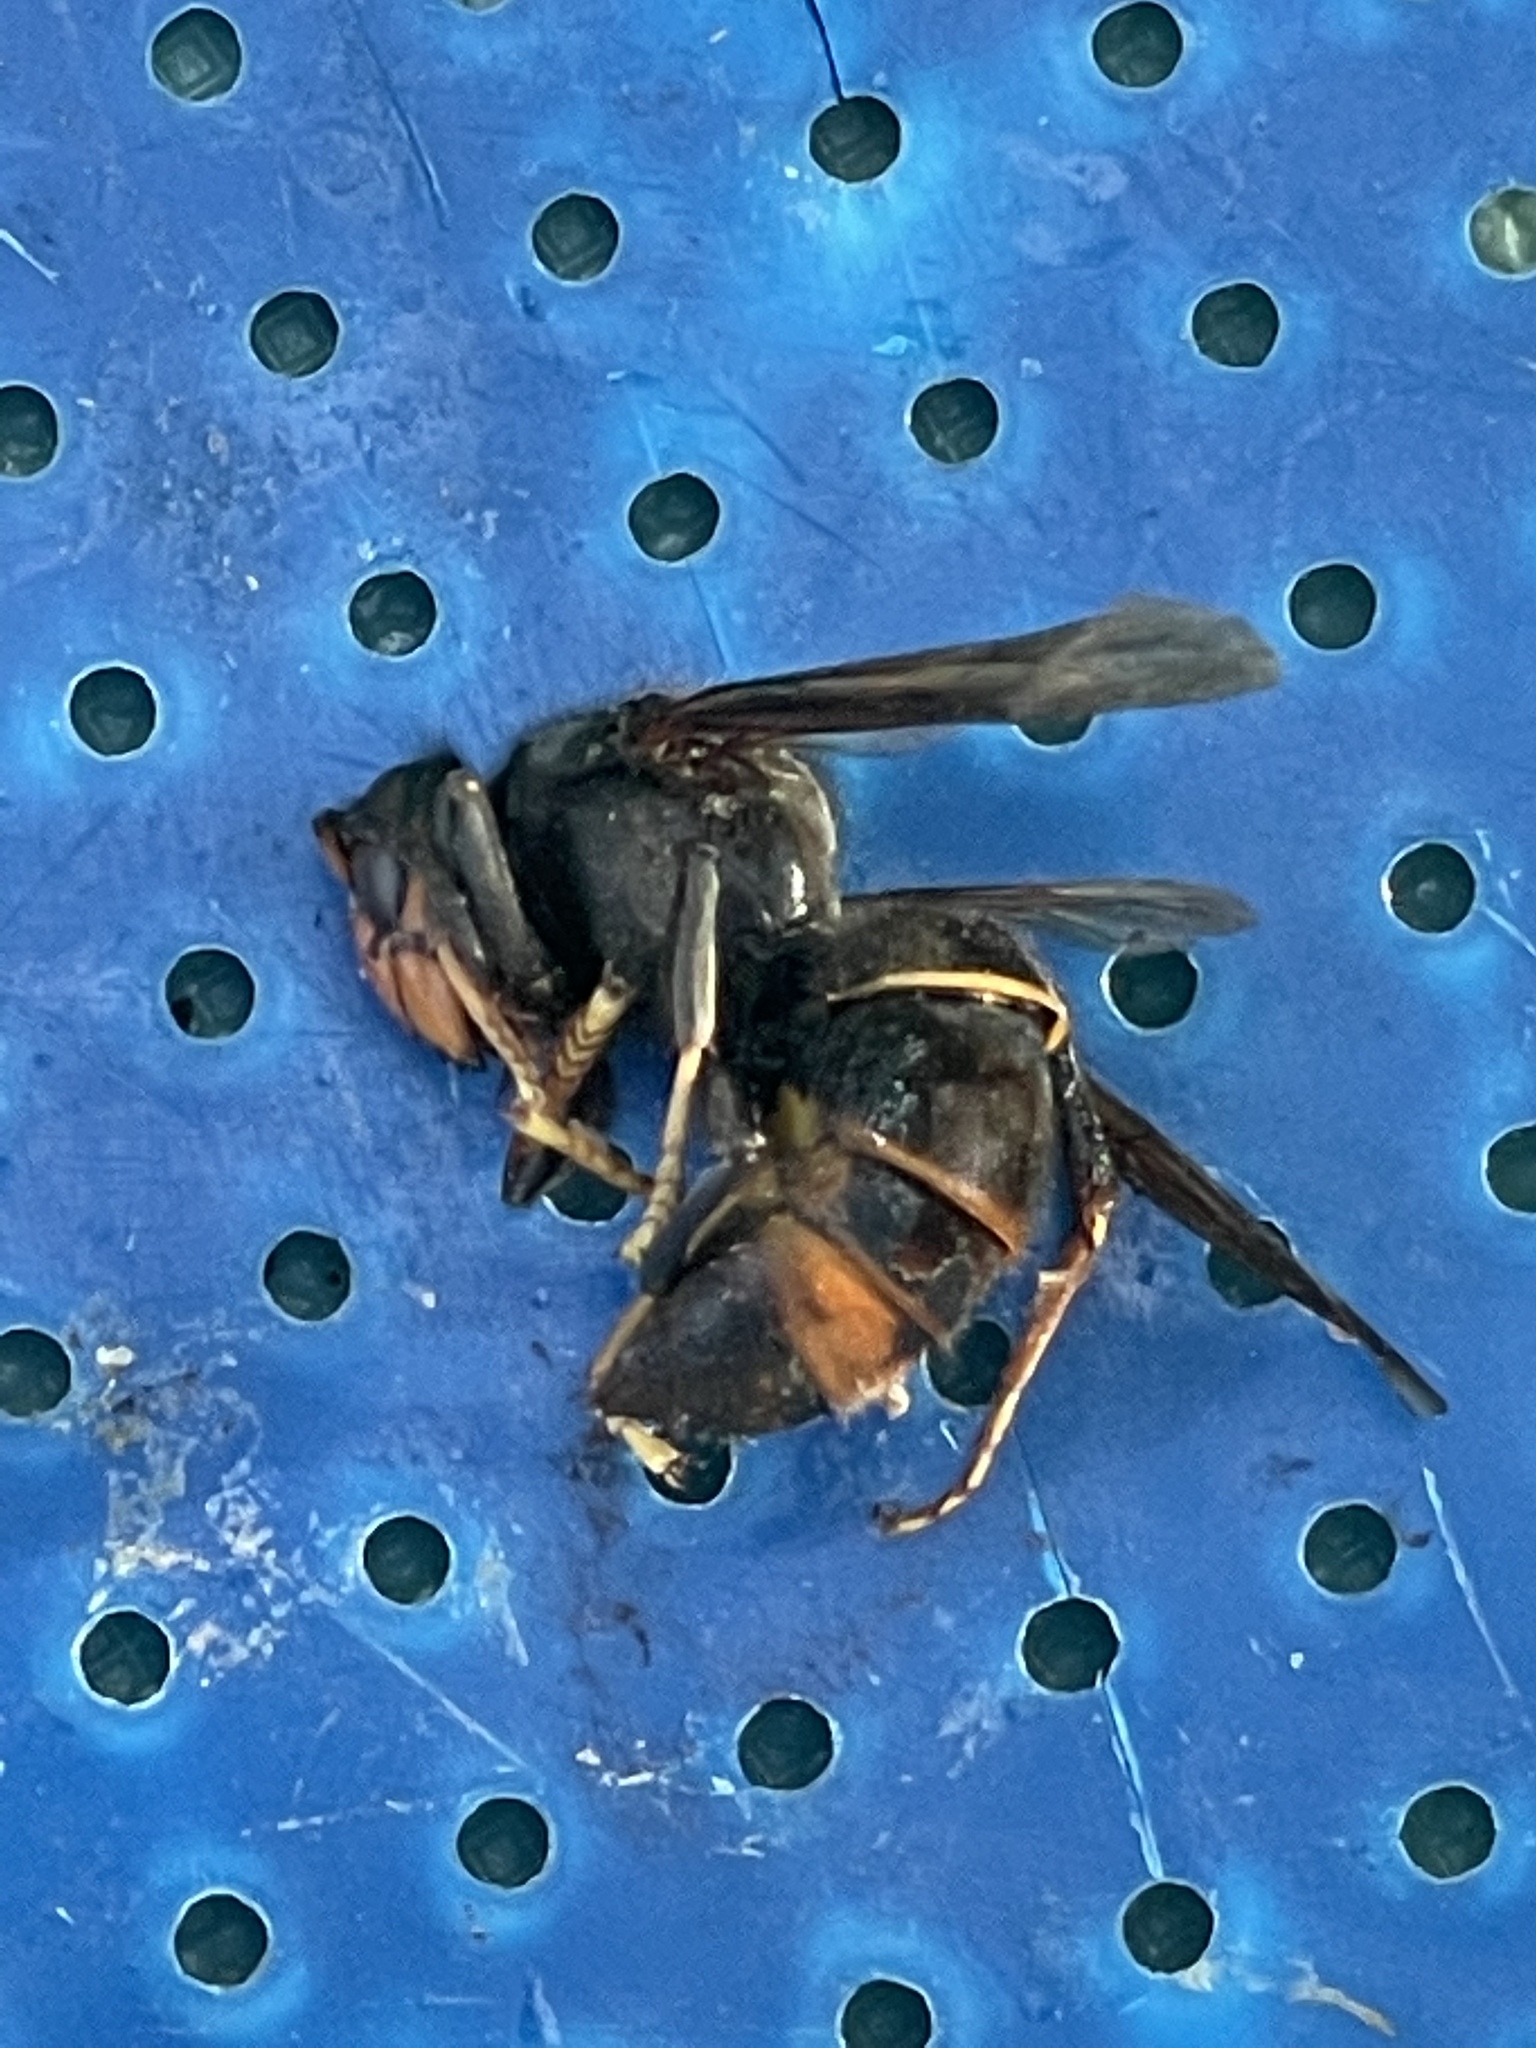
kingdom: Animalia
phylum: Arthropoda
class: Insecta
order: Hymenoptera
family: Vespidae
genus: Vespa
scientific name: Vespa velutina
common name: Asian hornet
